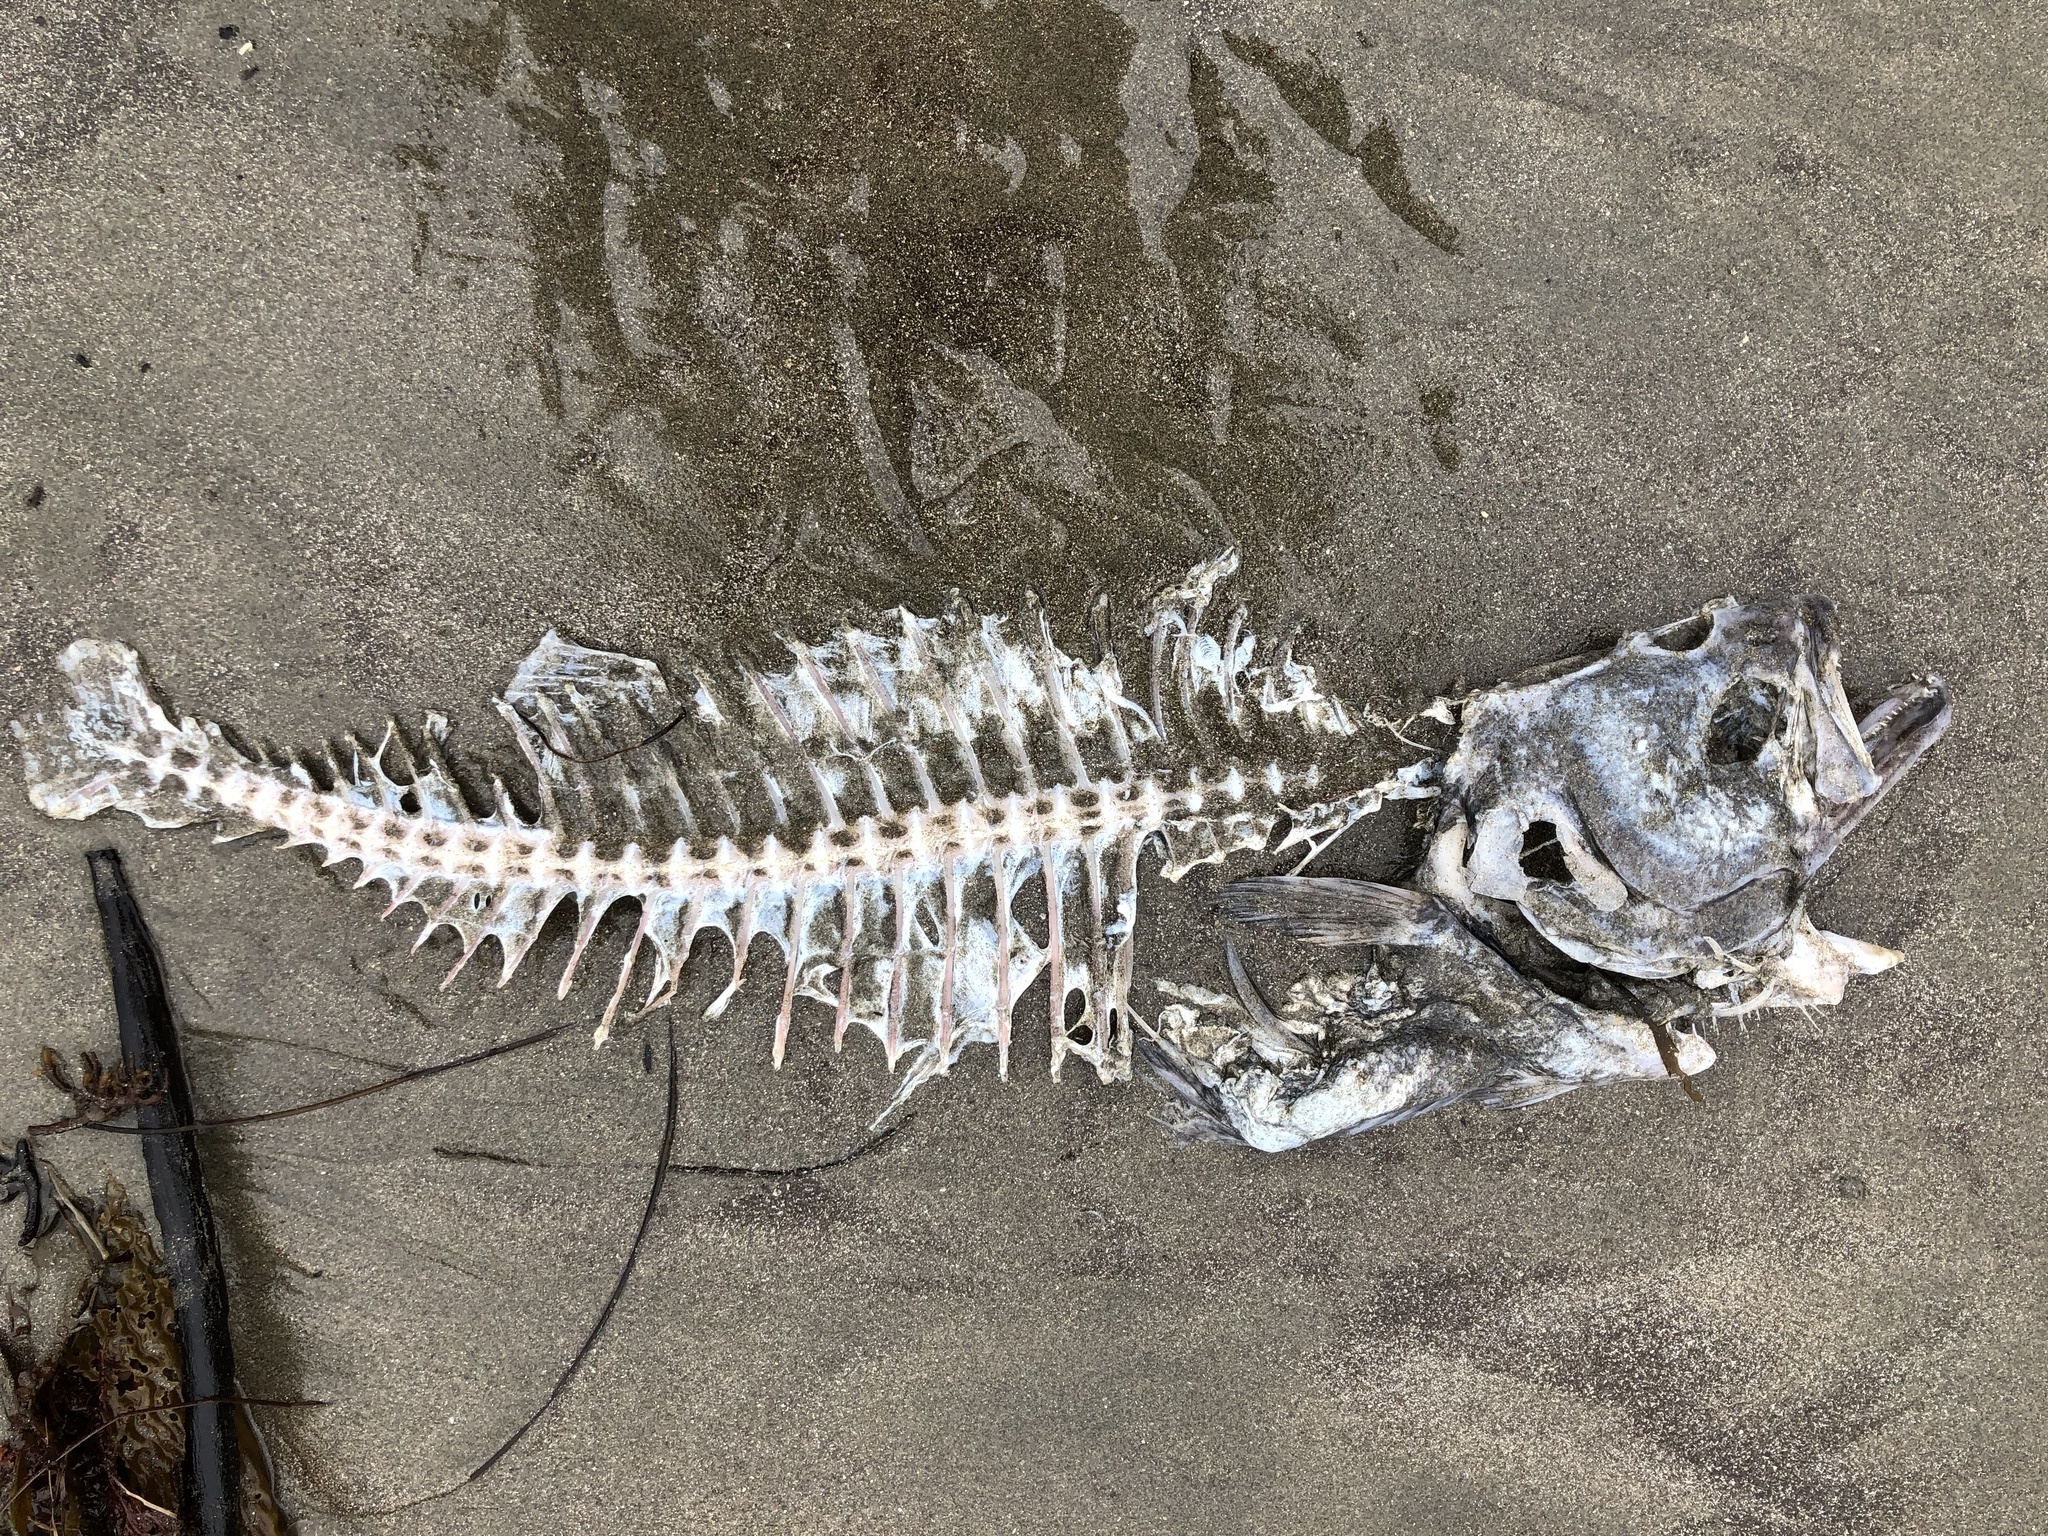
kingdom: Animalia
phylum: Chordata
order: Pleuronectiformes
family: Paralichthyidae
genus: Paralichthys
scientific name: Paralichthys californicus
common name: California halibut
